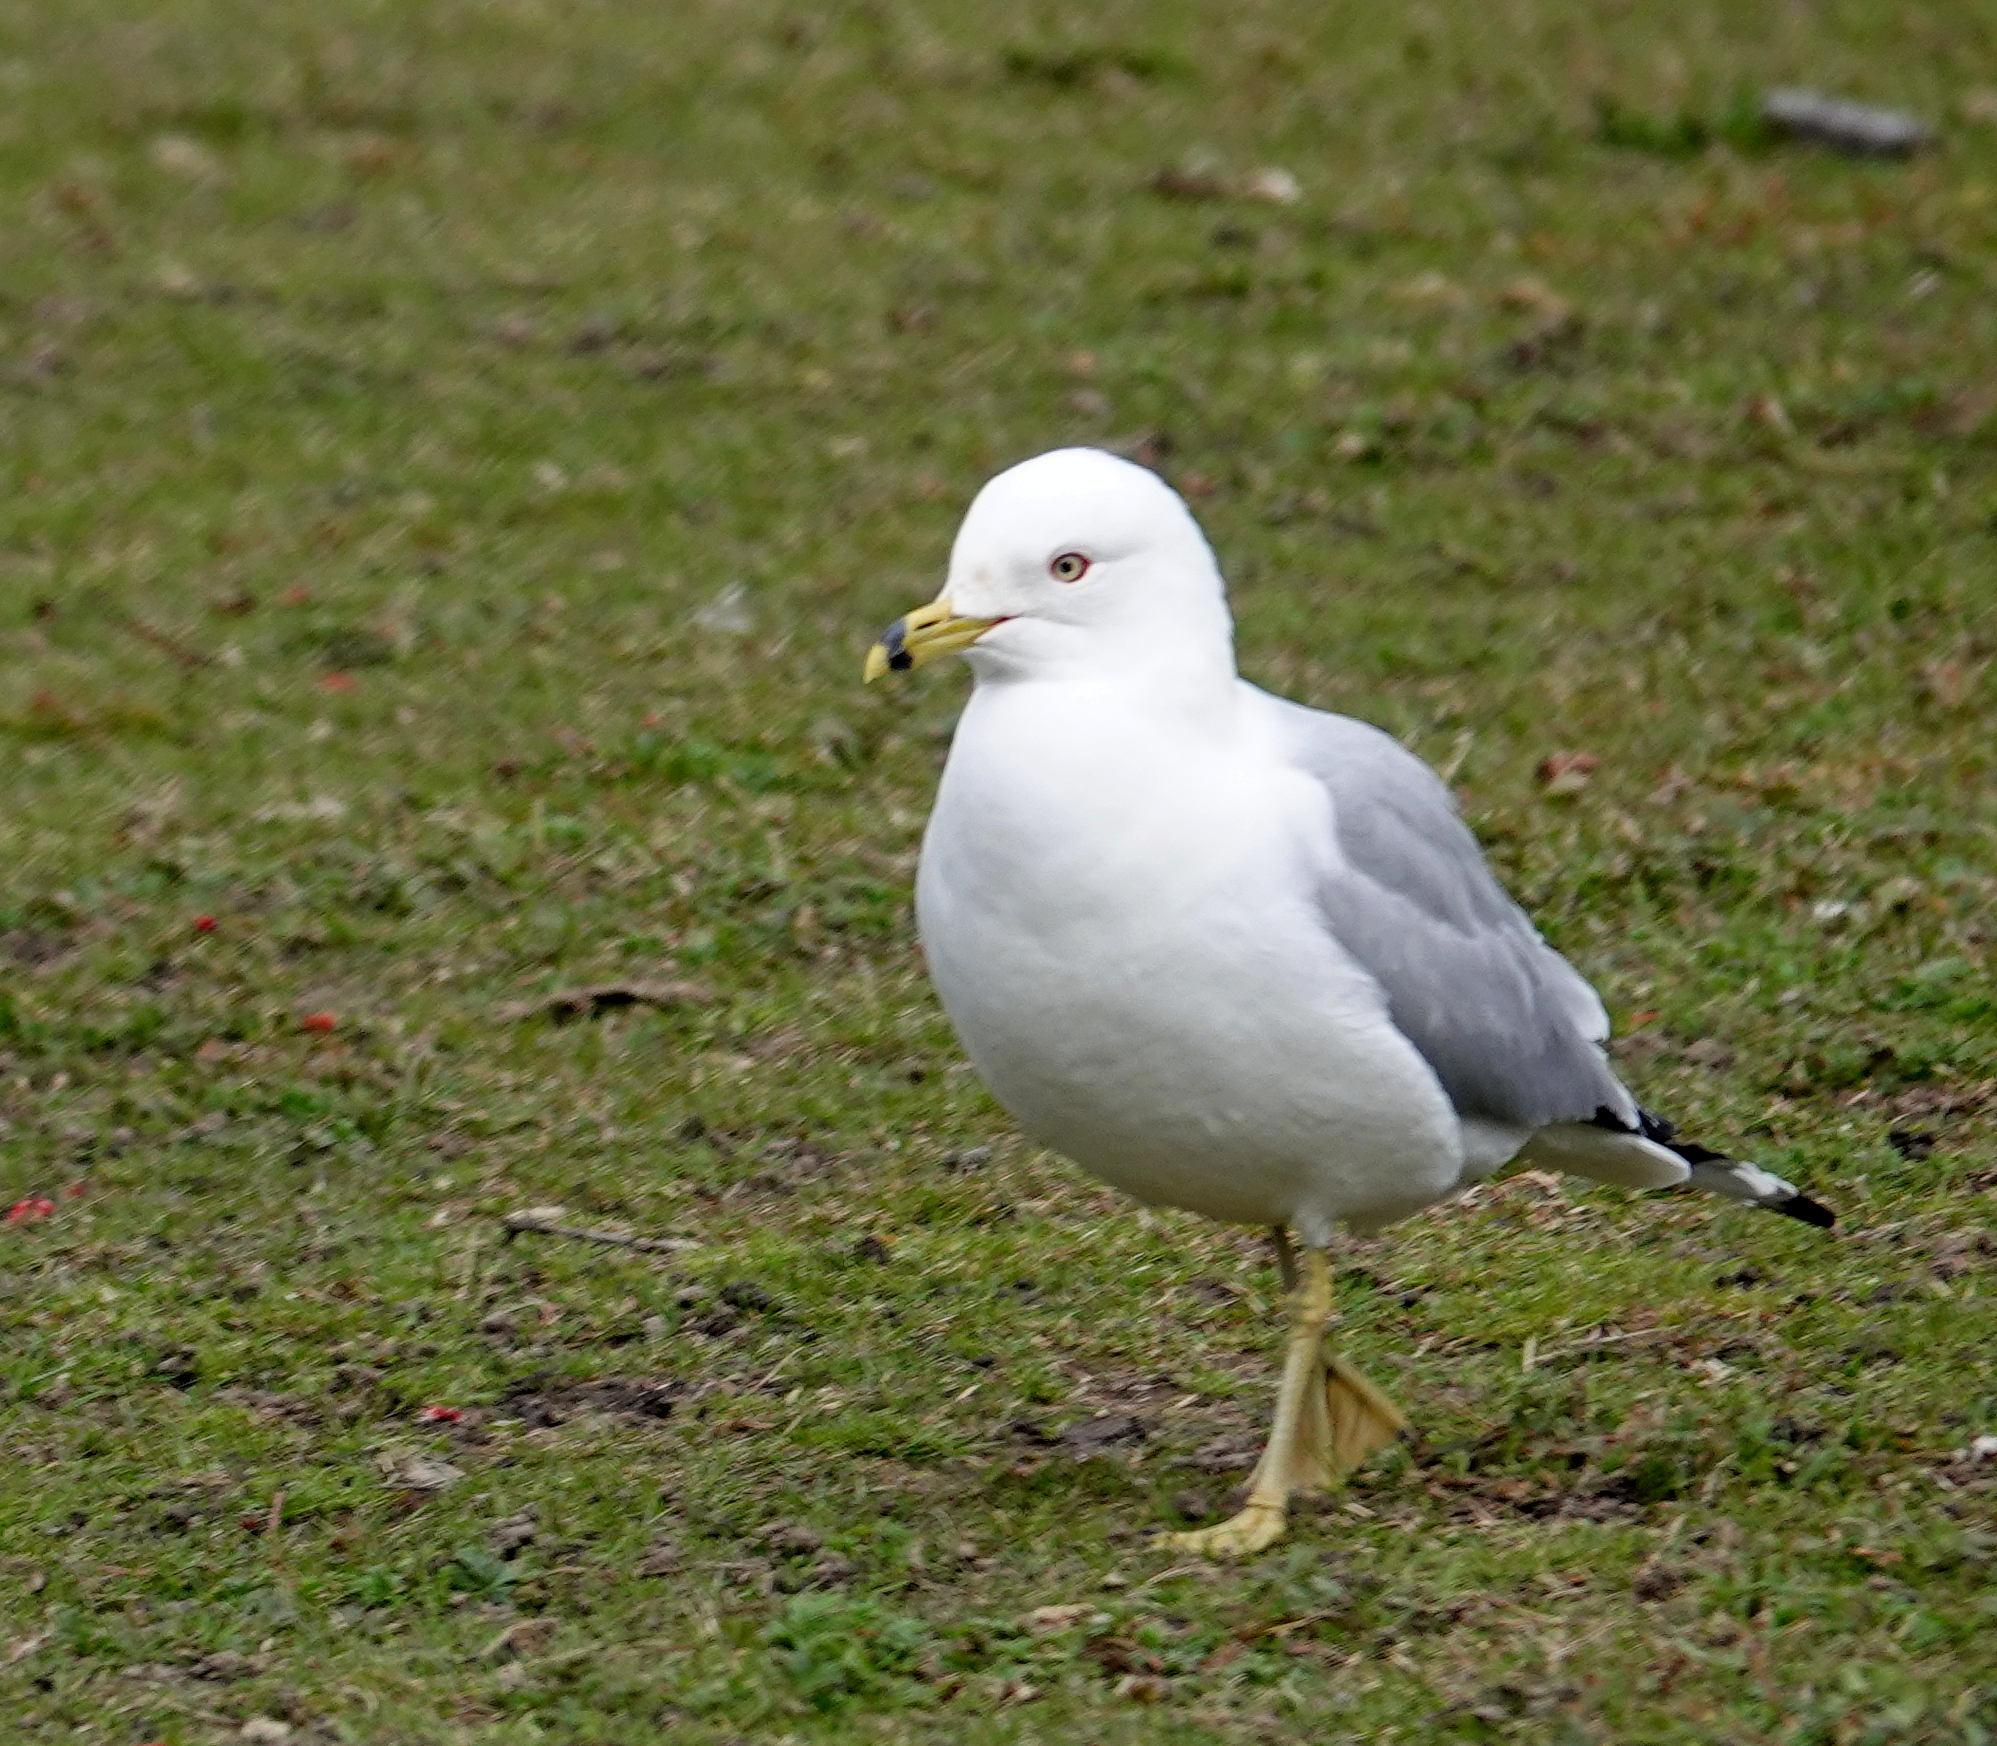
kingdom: Animalia
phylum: Chordata
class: Aves
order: Charadriiformes
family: Laridae
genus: Larus
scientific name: Larus delawarensis
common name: Ring-billed gull
